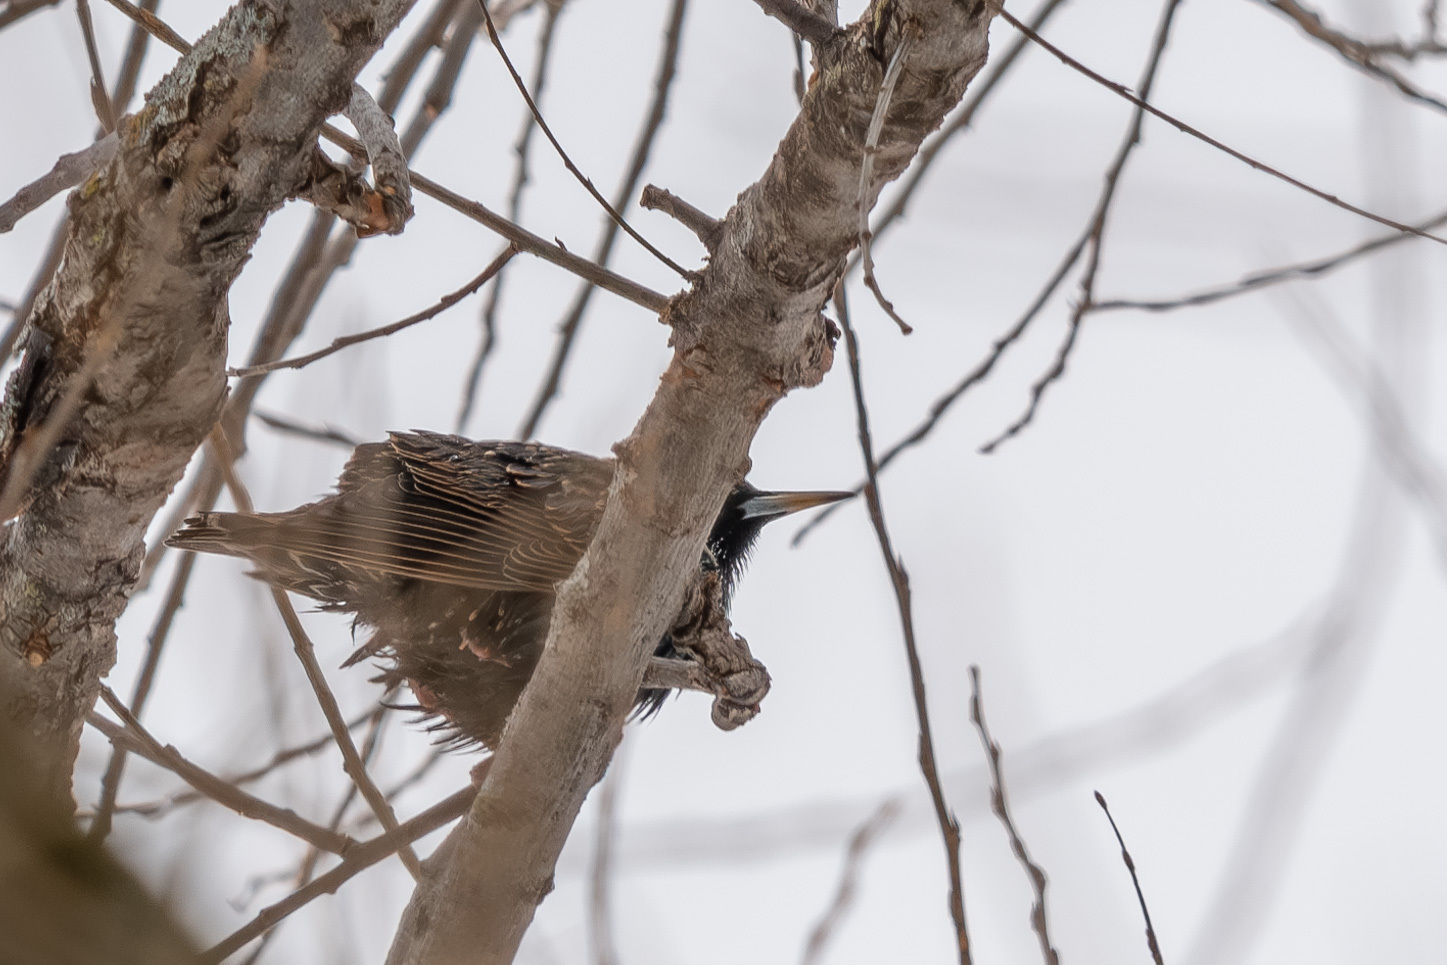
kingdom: Animalia
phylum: Chordata
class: Aves
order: Passeriformes
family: Sturnidae
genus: Sturnus
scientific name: Sturnus vulgaris
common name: Common starling
